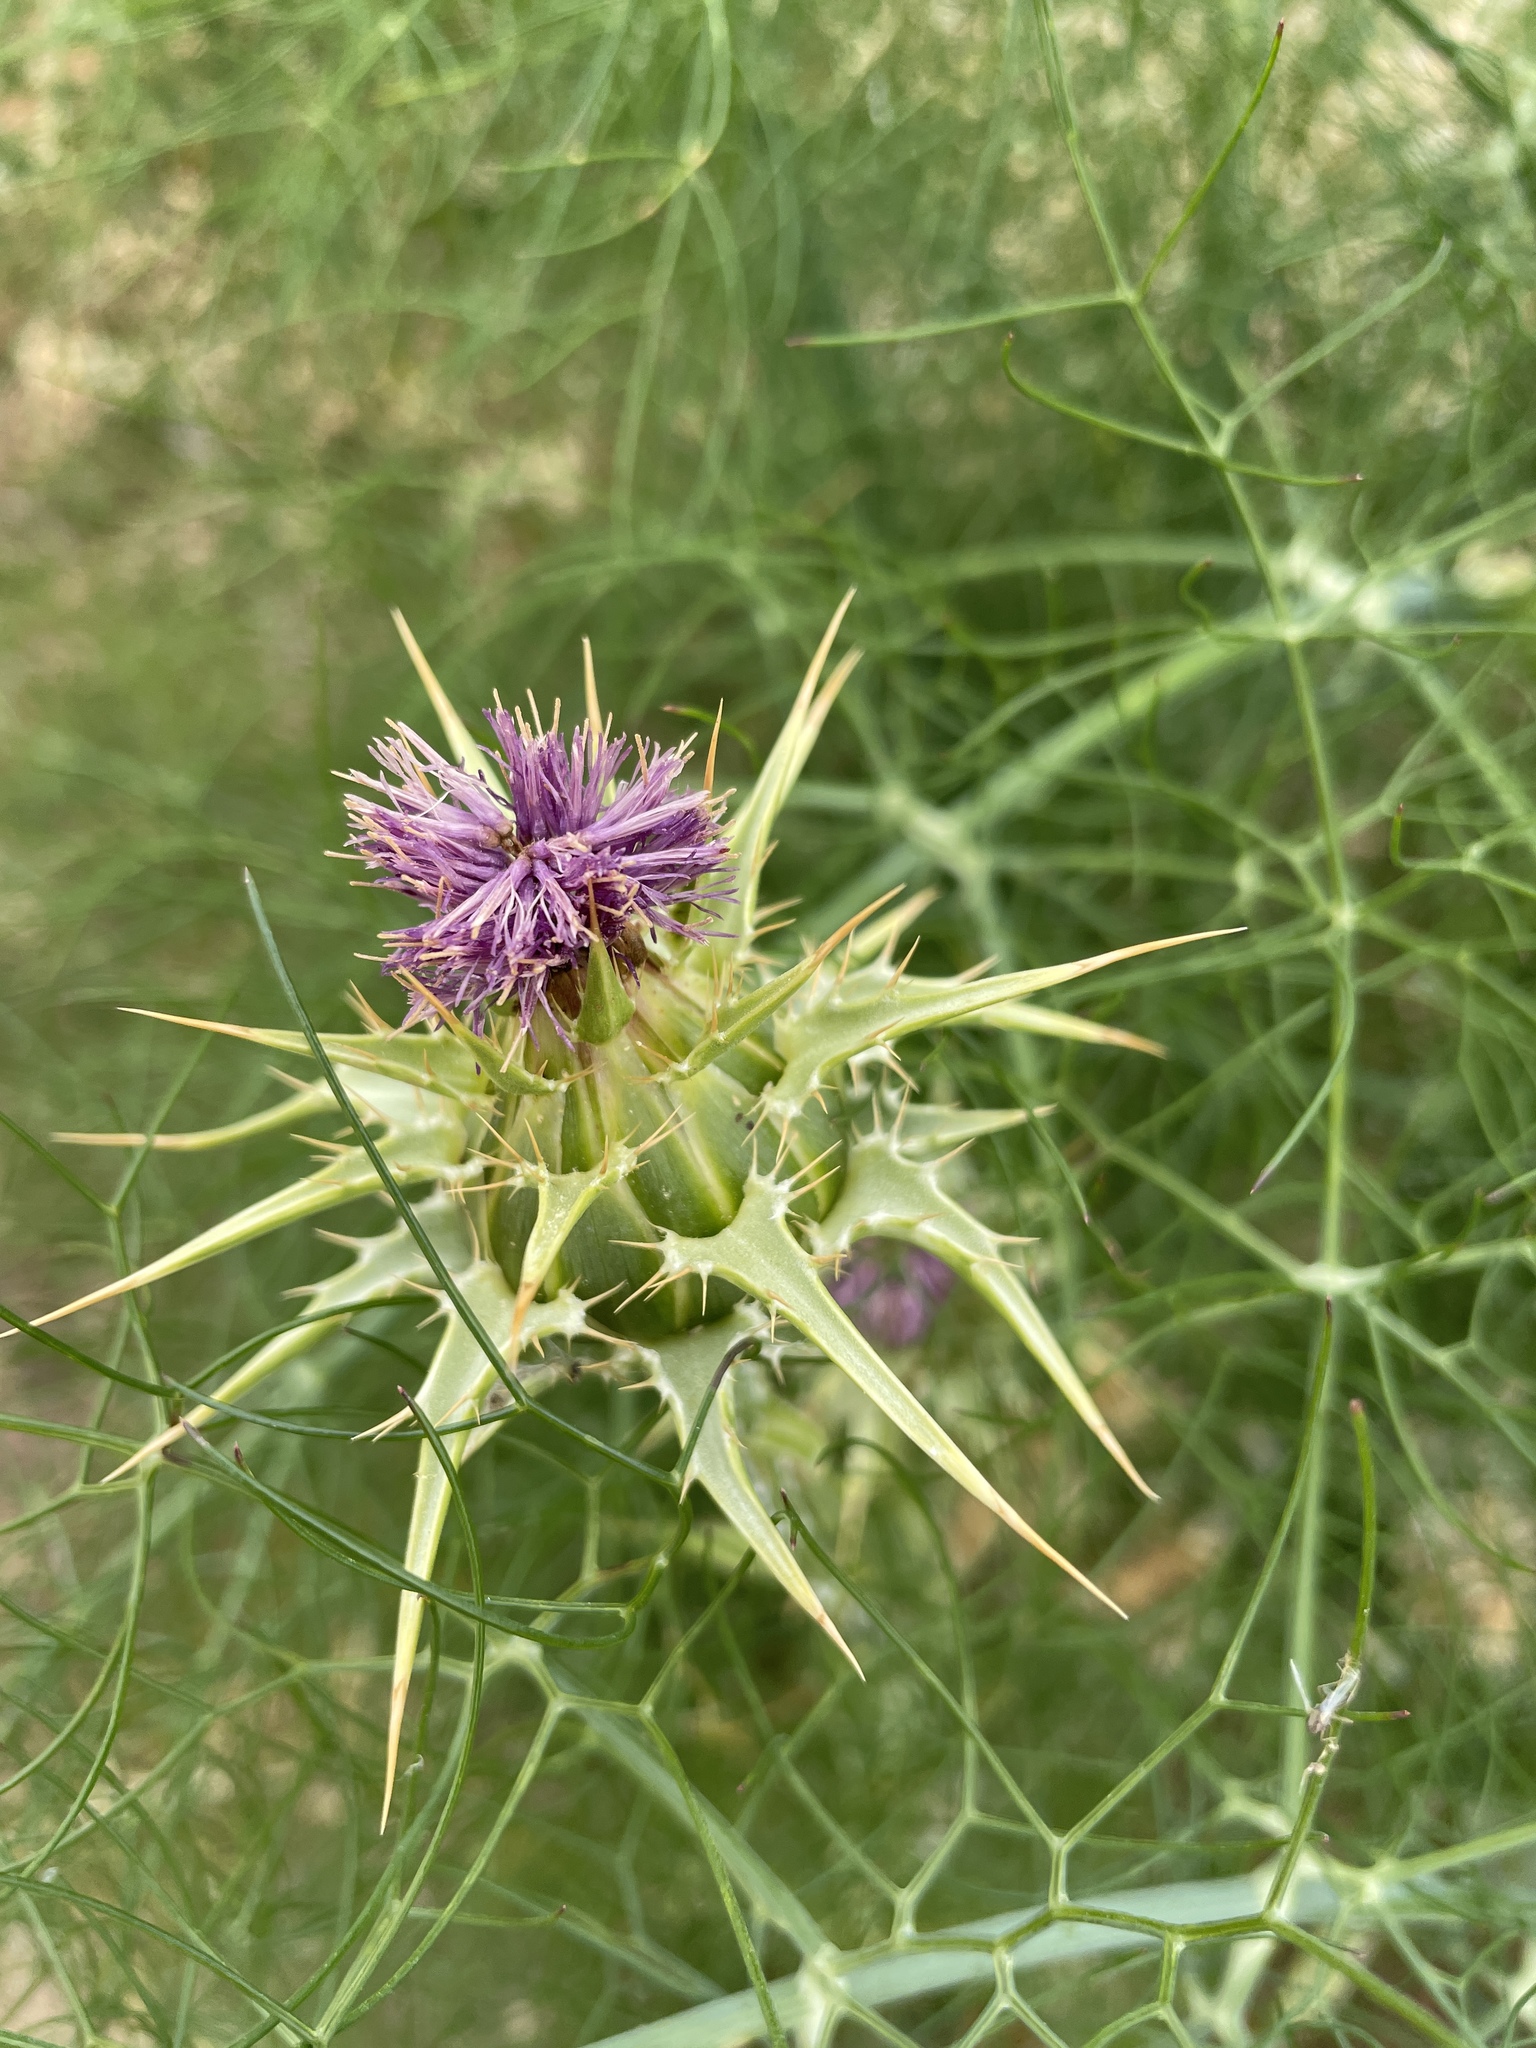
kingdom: Plantae
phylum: Tracheophyta
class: Magnoliopsida
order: Asterales
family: Asteraceae
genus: Silybum
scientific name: Silybum marianum
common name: Milk thistle
